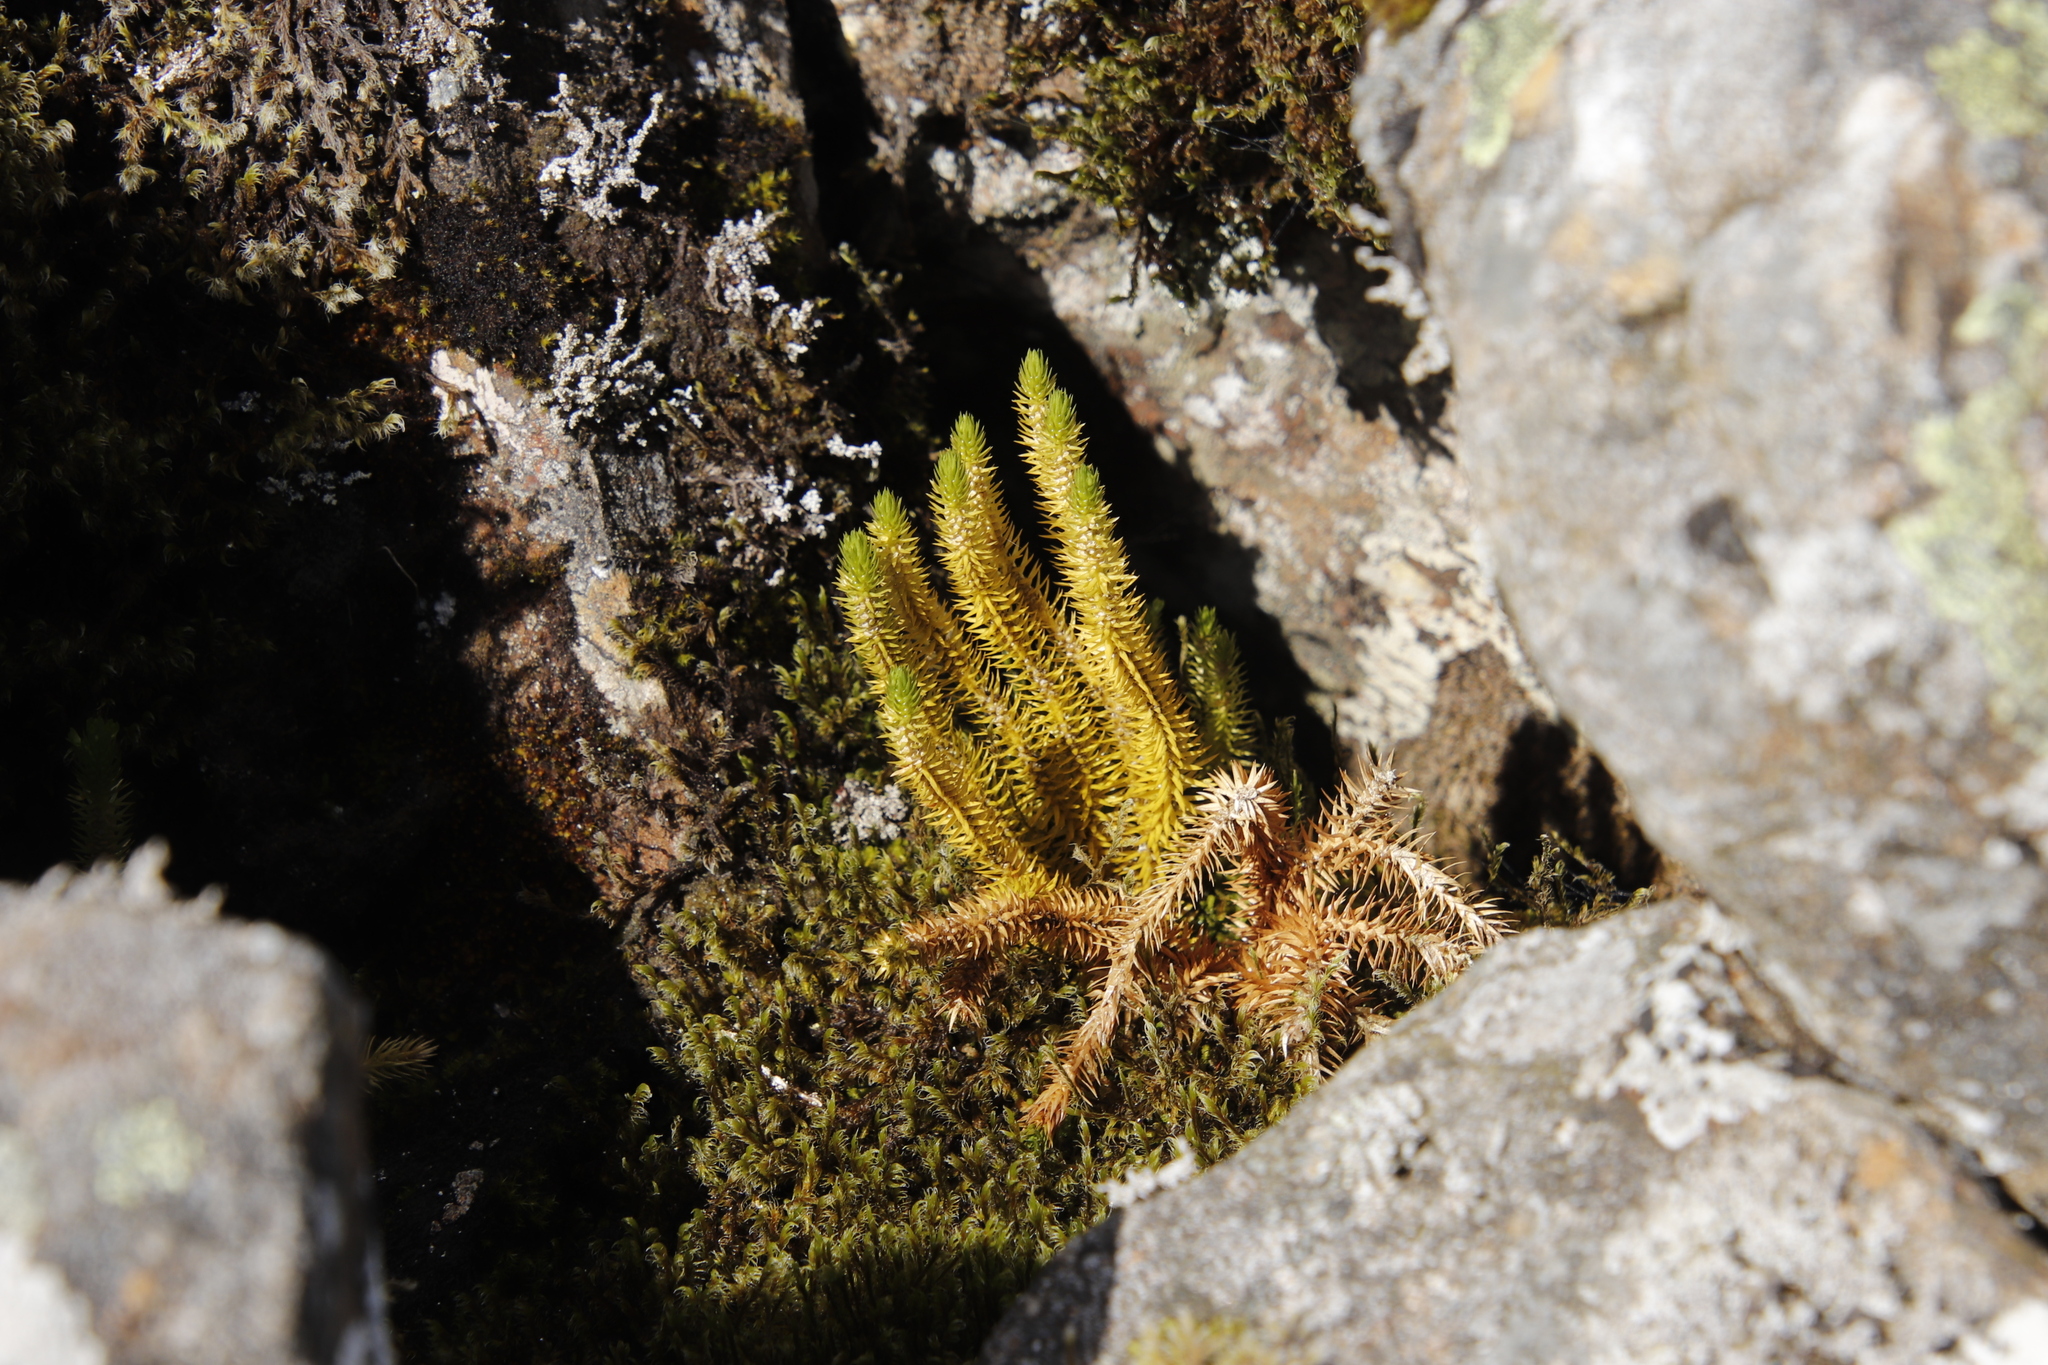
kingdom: Plantae
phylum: Tracheophyta
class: Lycopodiopsida
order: Lycopodiales
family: Lycopodiaceae
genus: Huperzia
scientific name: Huperzia selago
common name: Northern firmoss
